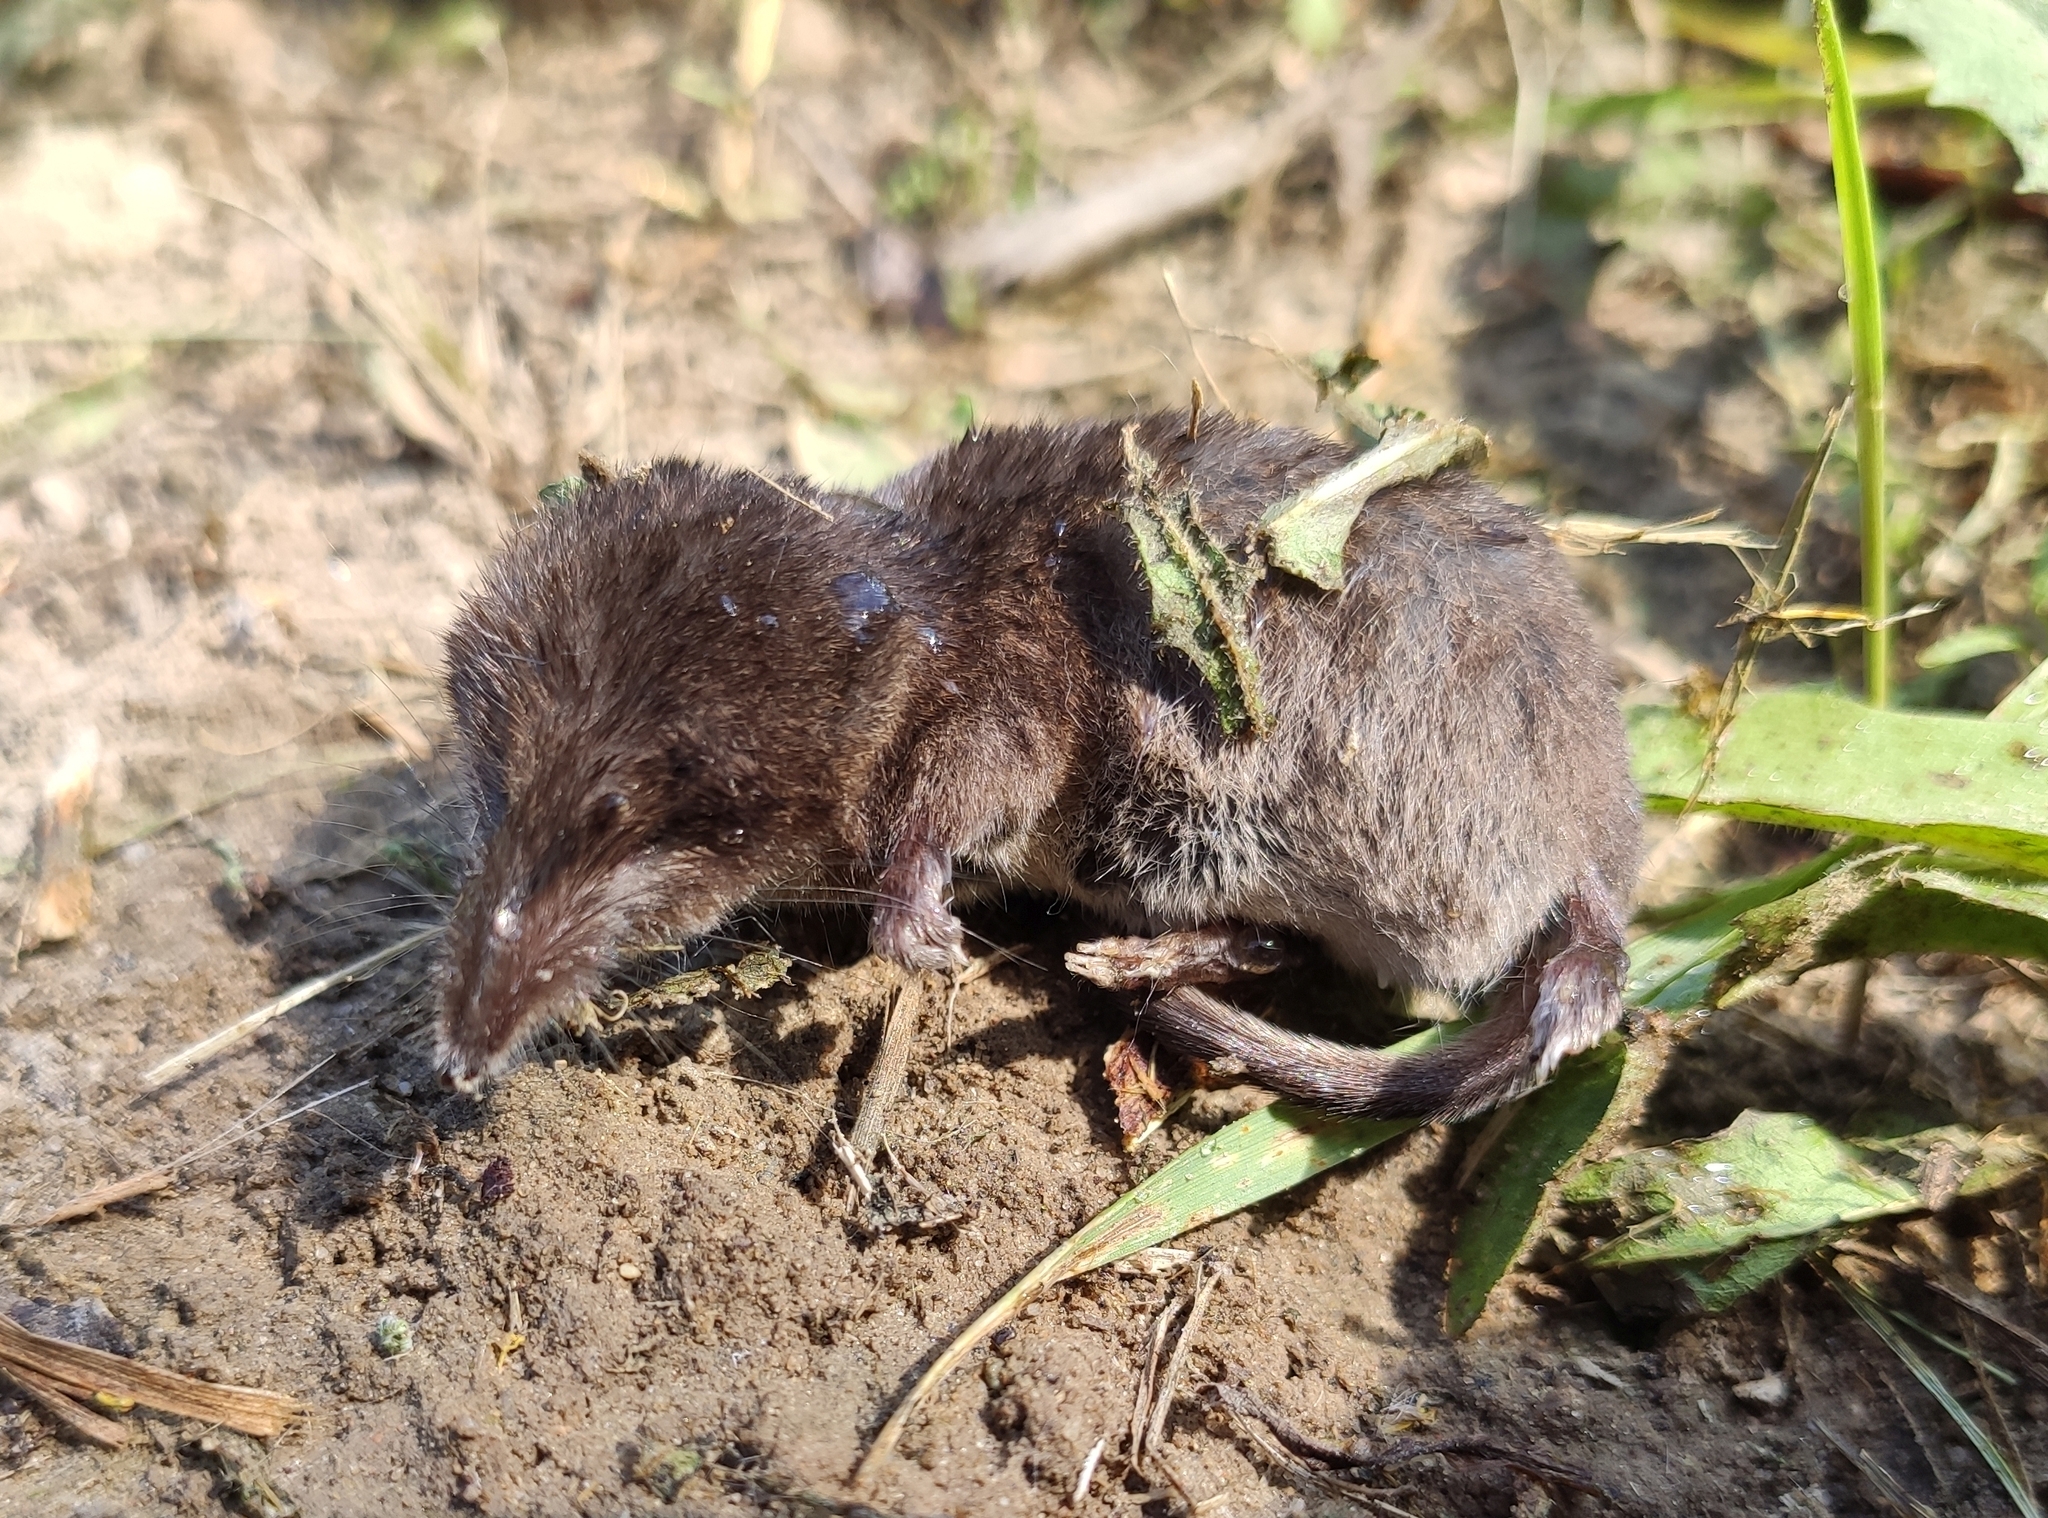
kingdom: Animalia
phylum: Chordata
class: Mammalia
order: Soricomorpha
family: Soricidae
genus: Sorex
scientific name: Sorex araneus
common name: Common shrew
